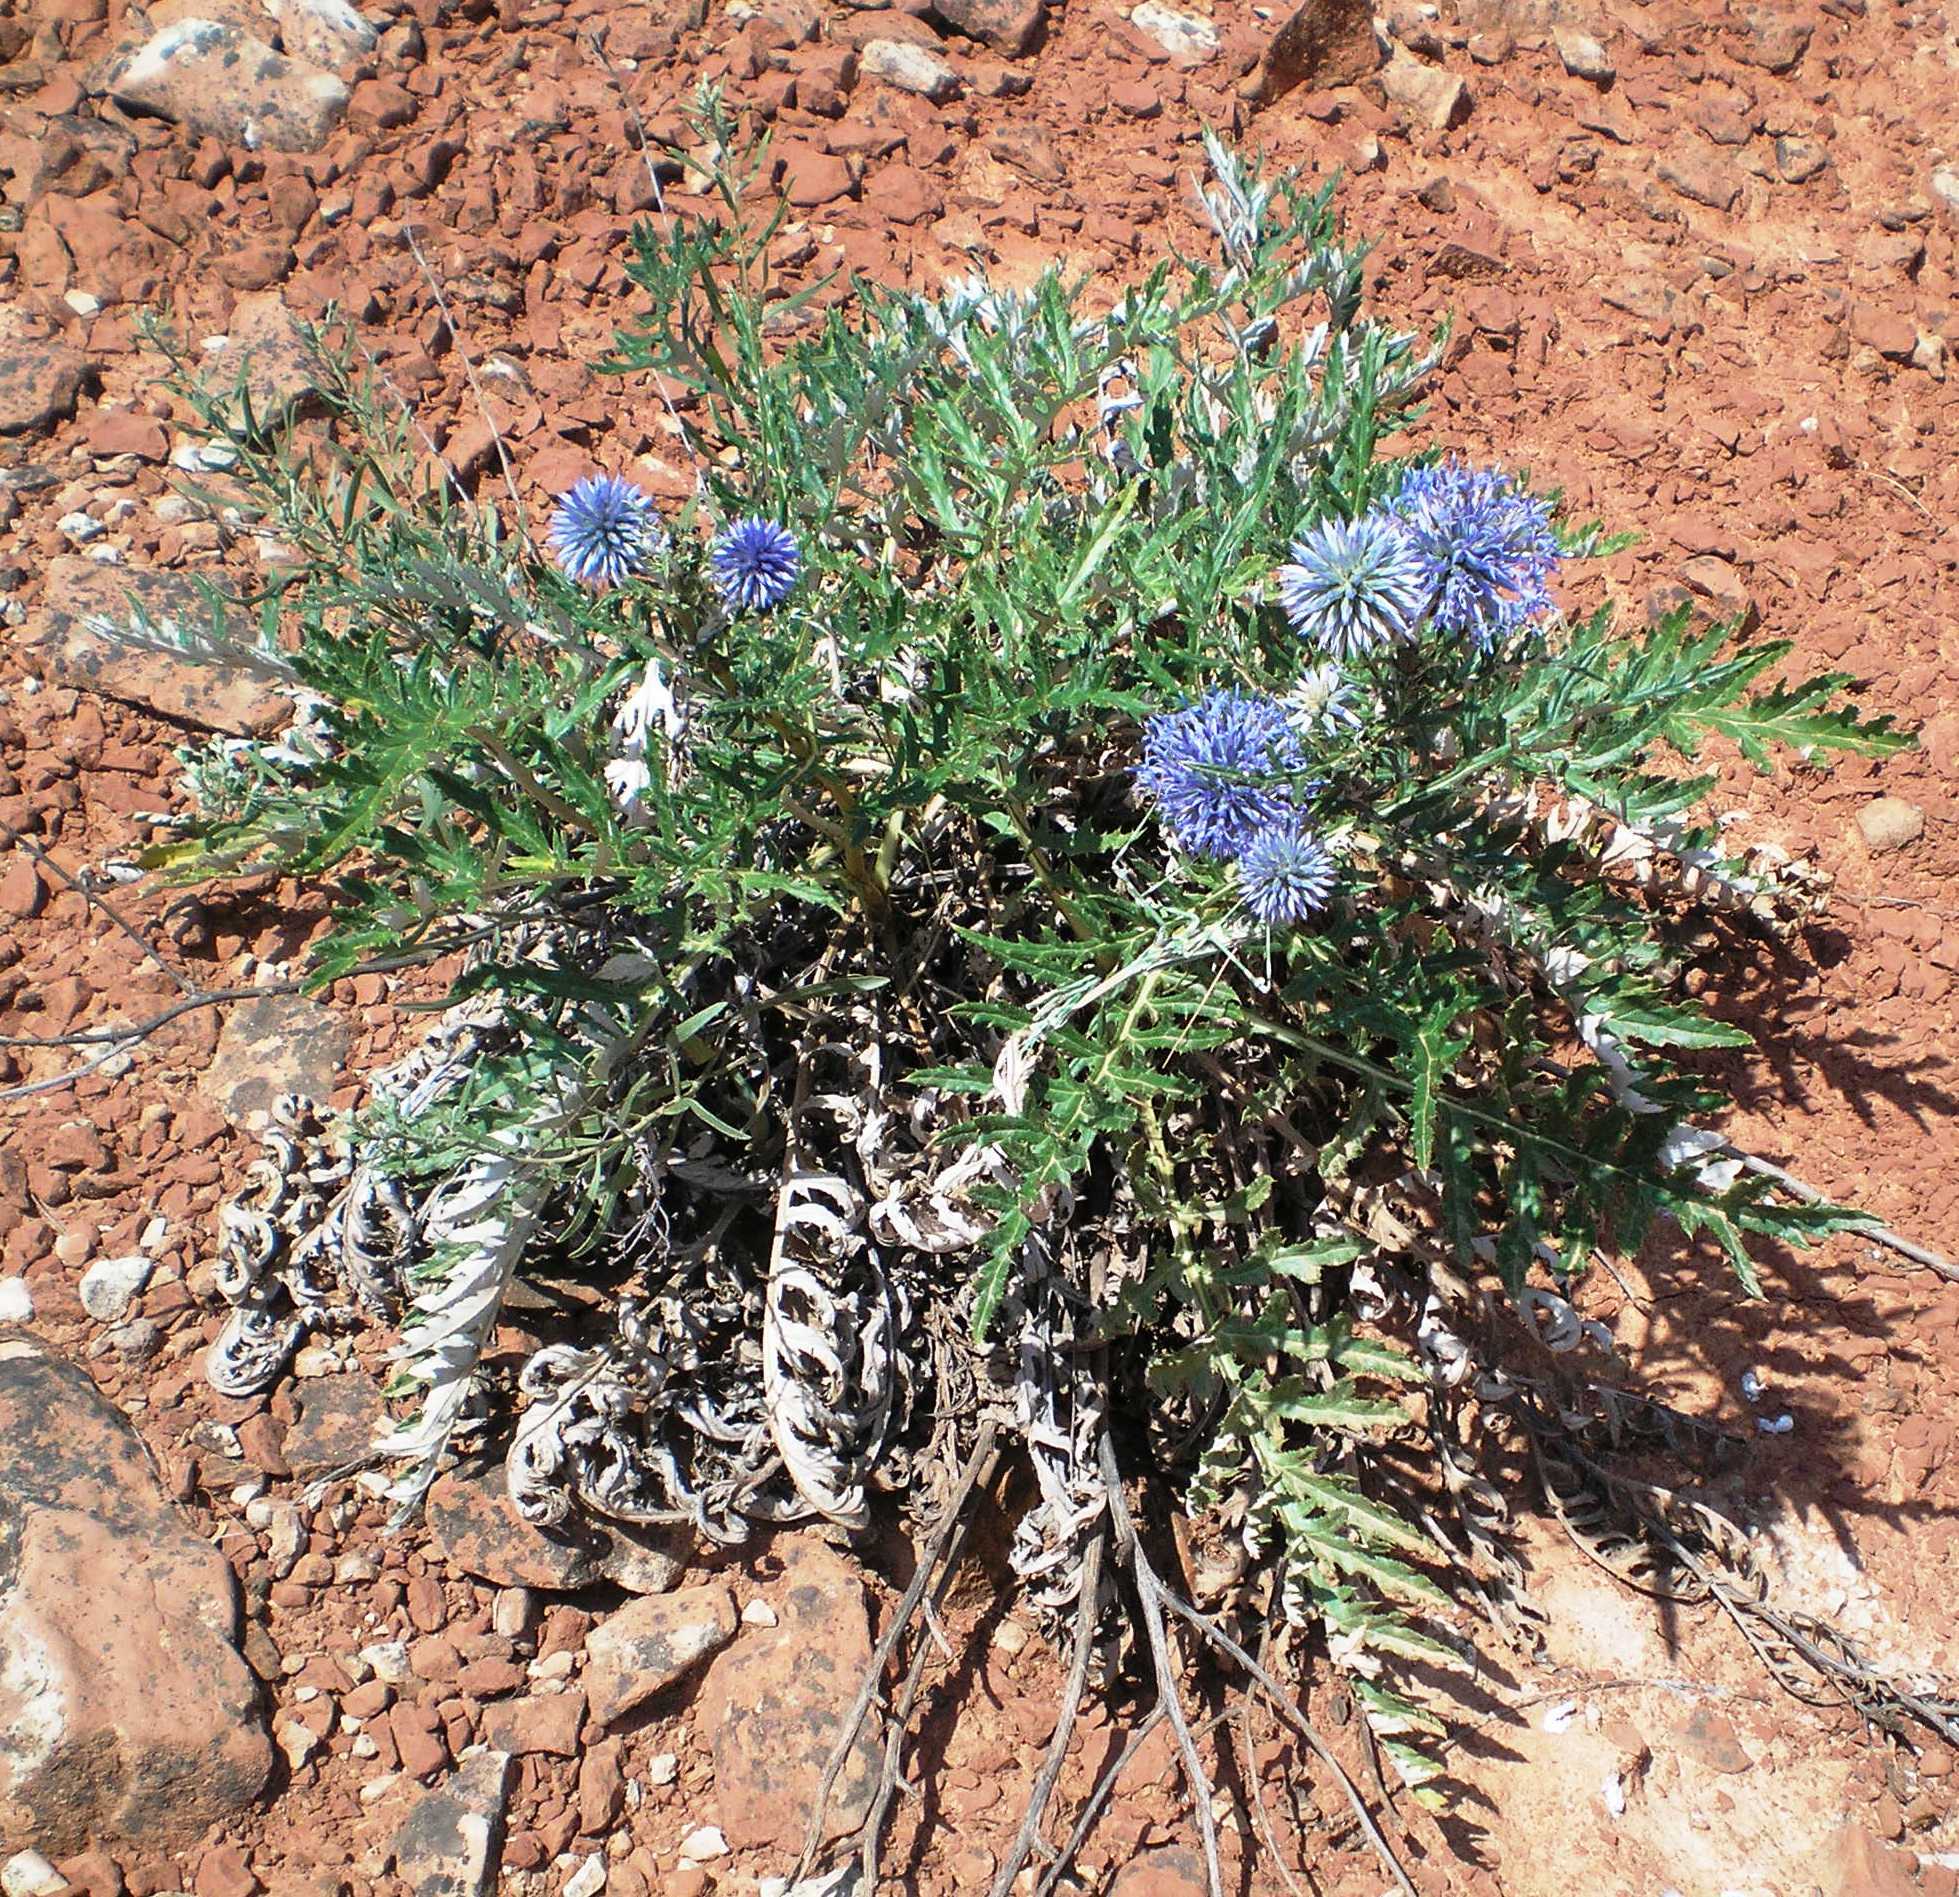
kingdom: Plantae
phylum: Tracheophyta
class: Magnoliopsida
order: Asterales
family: Asteraceae
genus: Echinops
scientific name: Echinops ritro
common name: Globe thistle
